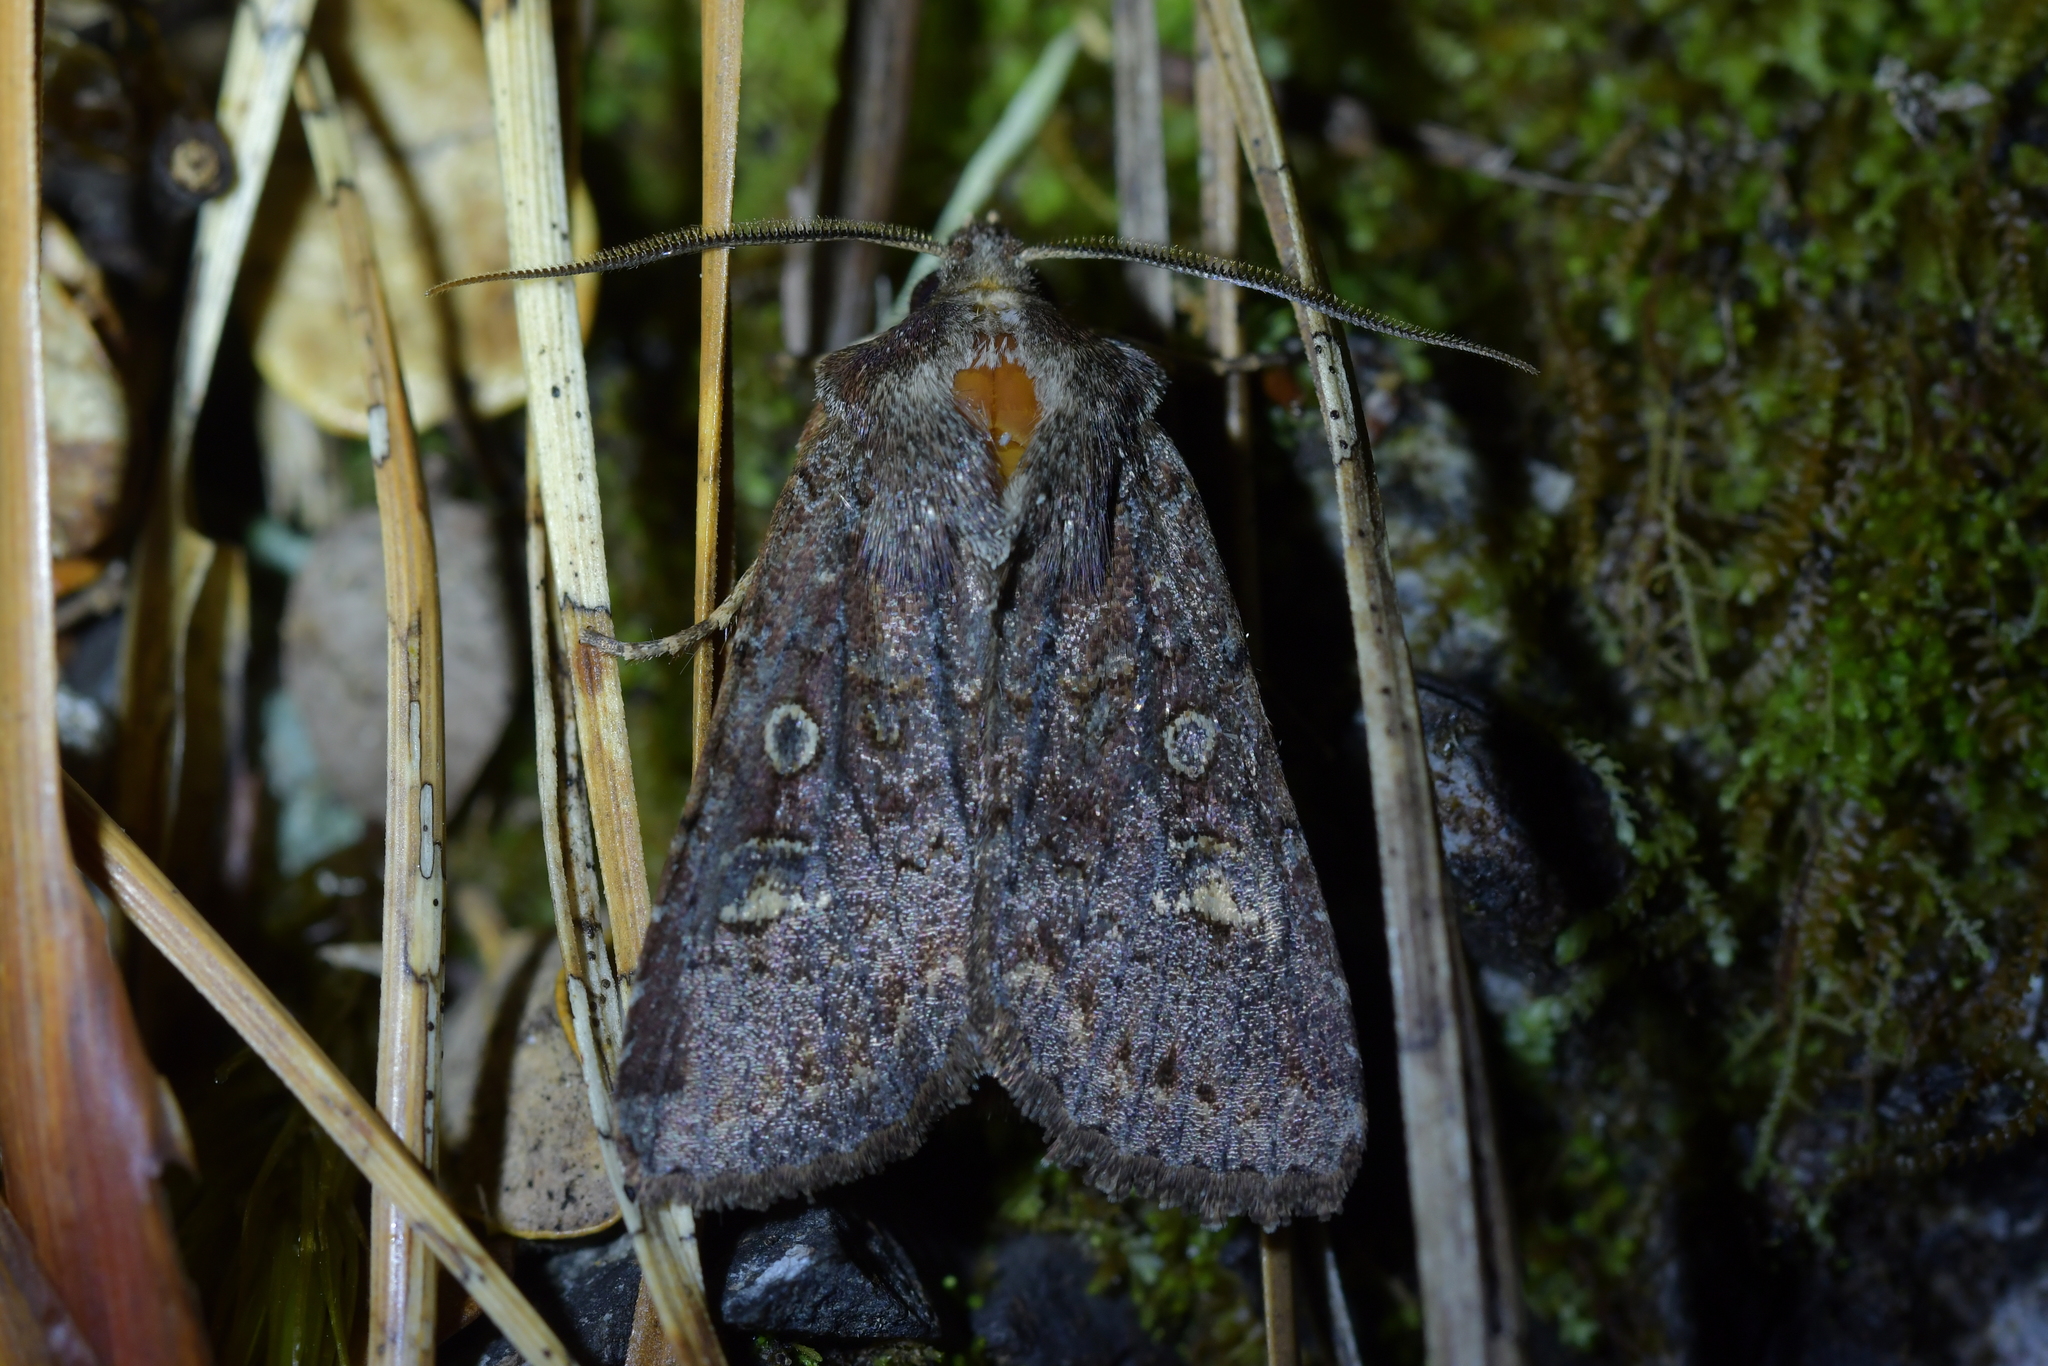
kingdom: Animalia
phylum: Arthropoda
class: Insecta
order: Lepidoptera
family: Noctuidae
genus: Ichneutica
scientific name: Ichneutica agorastis
